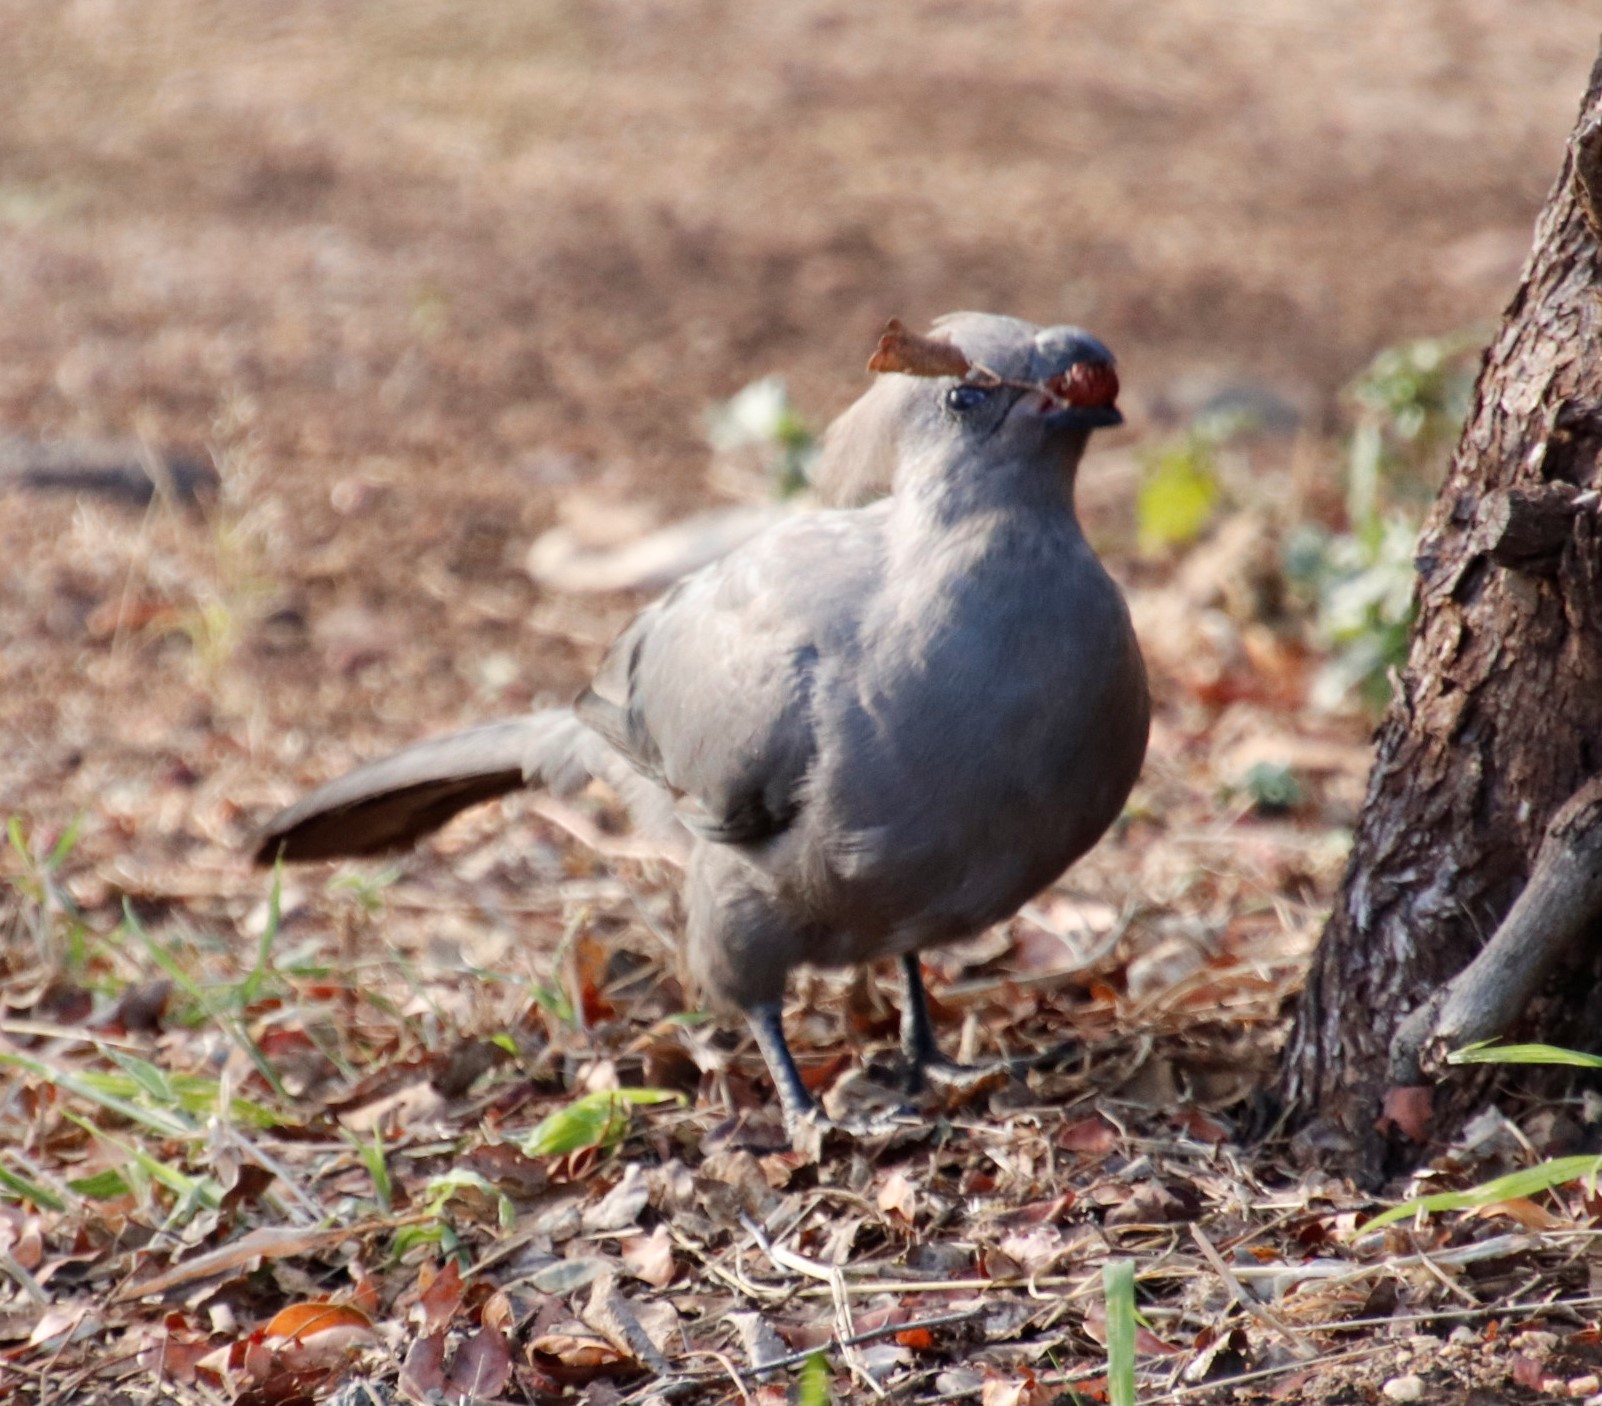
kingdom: Animalia
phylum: Chordata
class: Aves
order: Musophagiformes
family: Musophagidae
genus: Corythaixoides
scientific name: Corythaixoides concolor
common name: Grey go-away-bird
